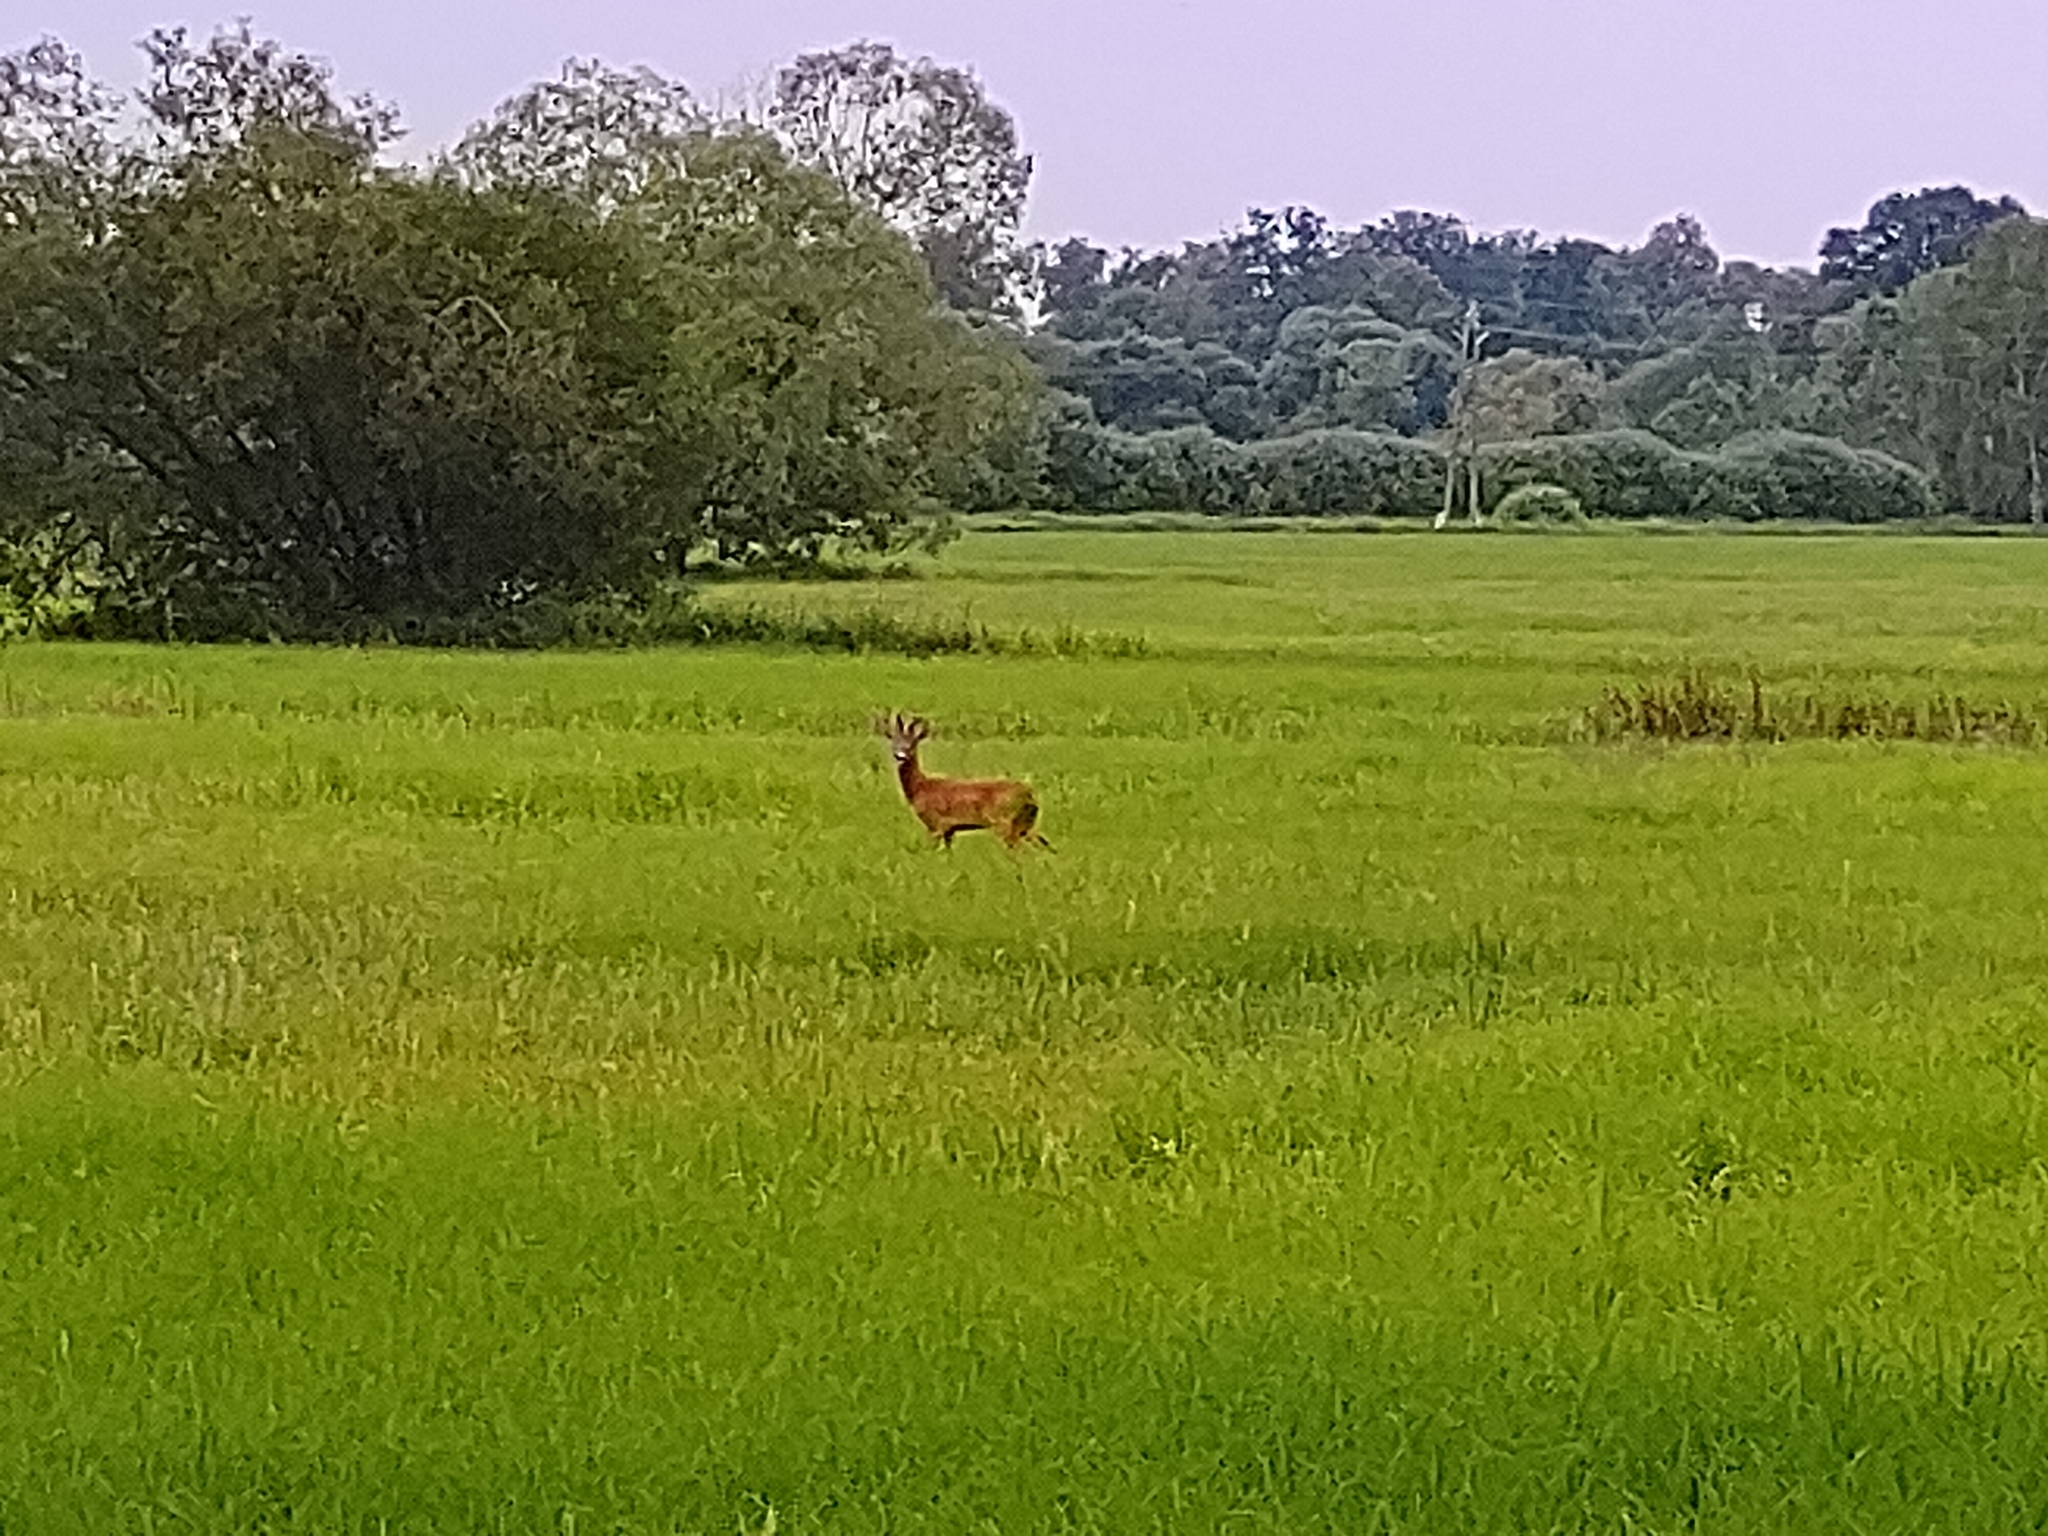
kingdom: Animalia
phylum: Chordata
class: Mammalia
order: Artiodactyla
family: Cervidae
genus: Capreolus
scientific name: Capreolus capreolus
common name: Western roe deer
